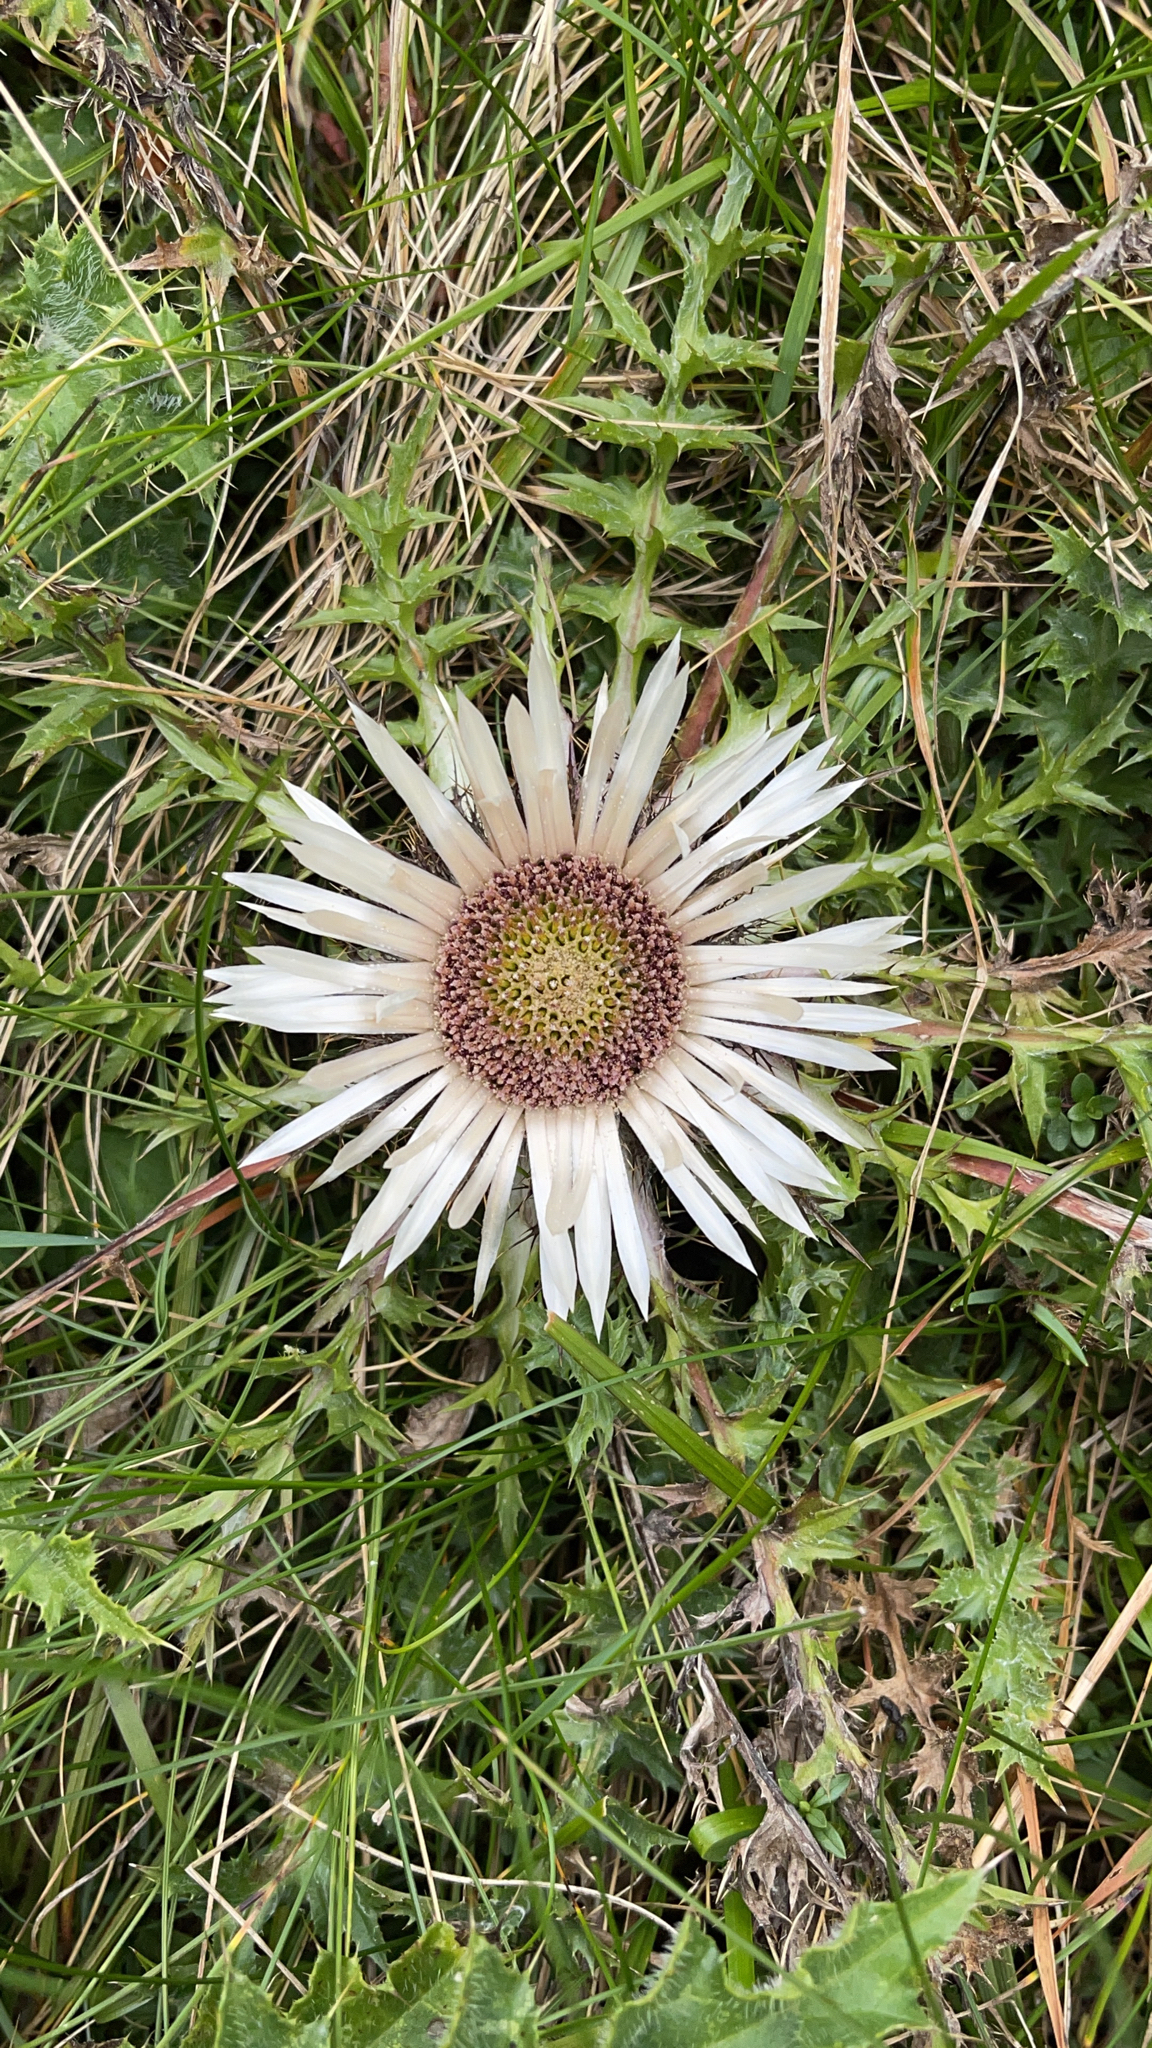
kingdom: Plantae
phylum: Tracheophyta
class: Magnoliopsida
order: Asterales
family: Asteraceae
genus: Carlina
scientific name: Carlina acaulis
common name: Stemless carline thistle
